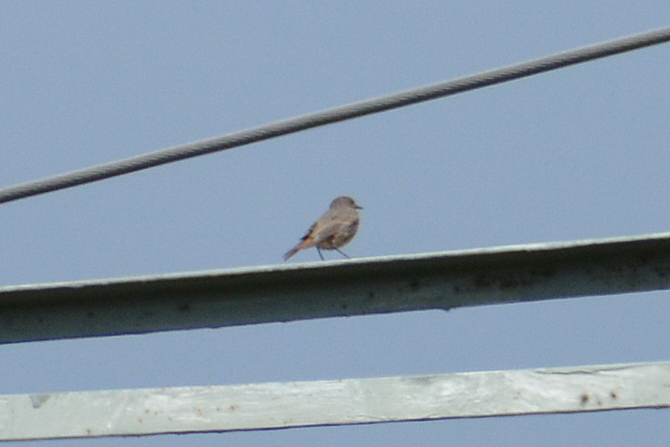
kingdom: Animalia
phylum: Chordata
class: Aves
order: Passeriformes
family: Muscicapidae
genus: Phoenicurus
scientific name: Phoenicurus ochruros
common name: Black redstart
